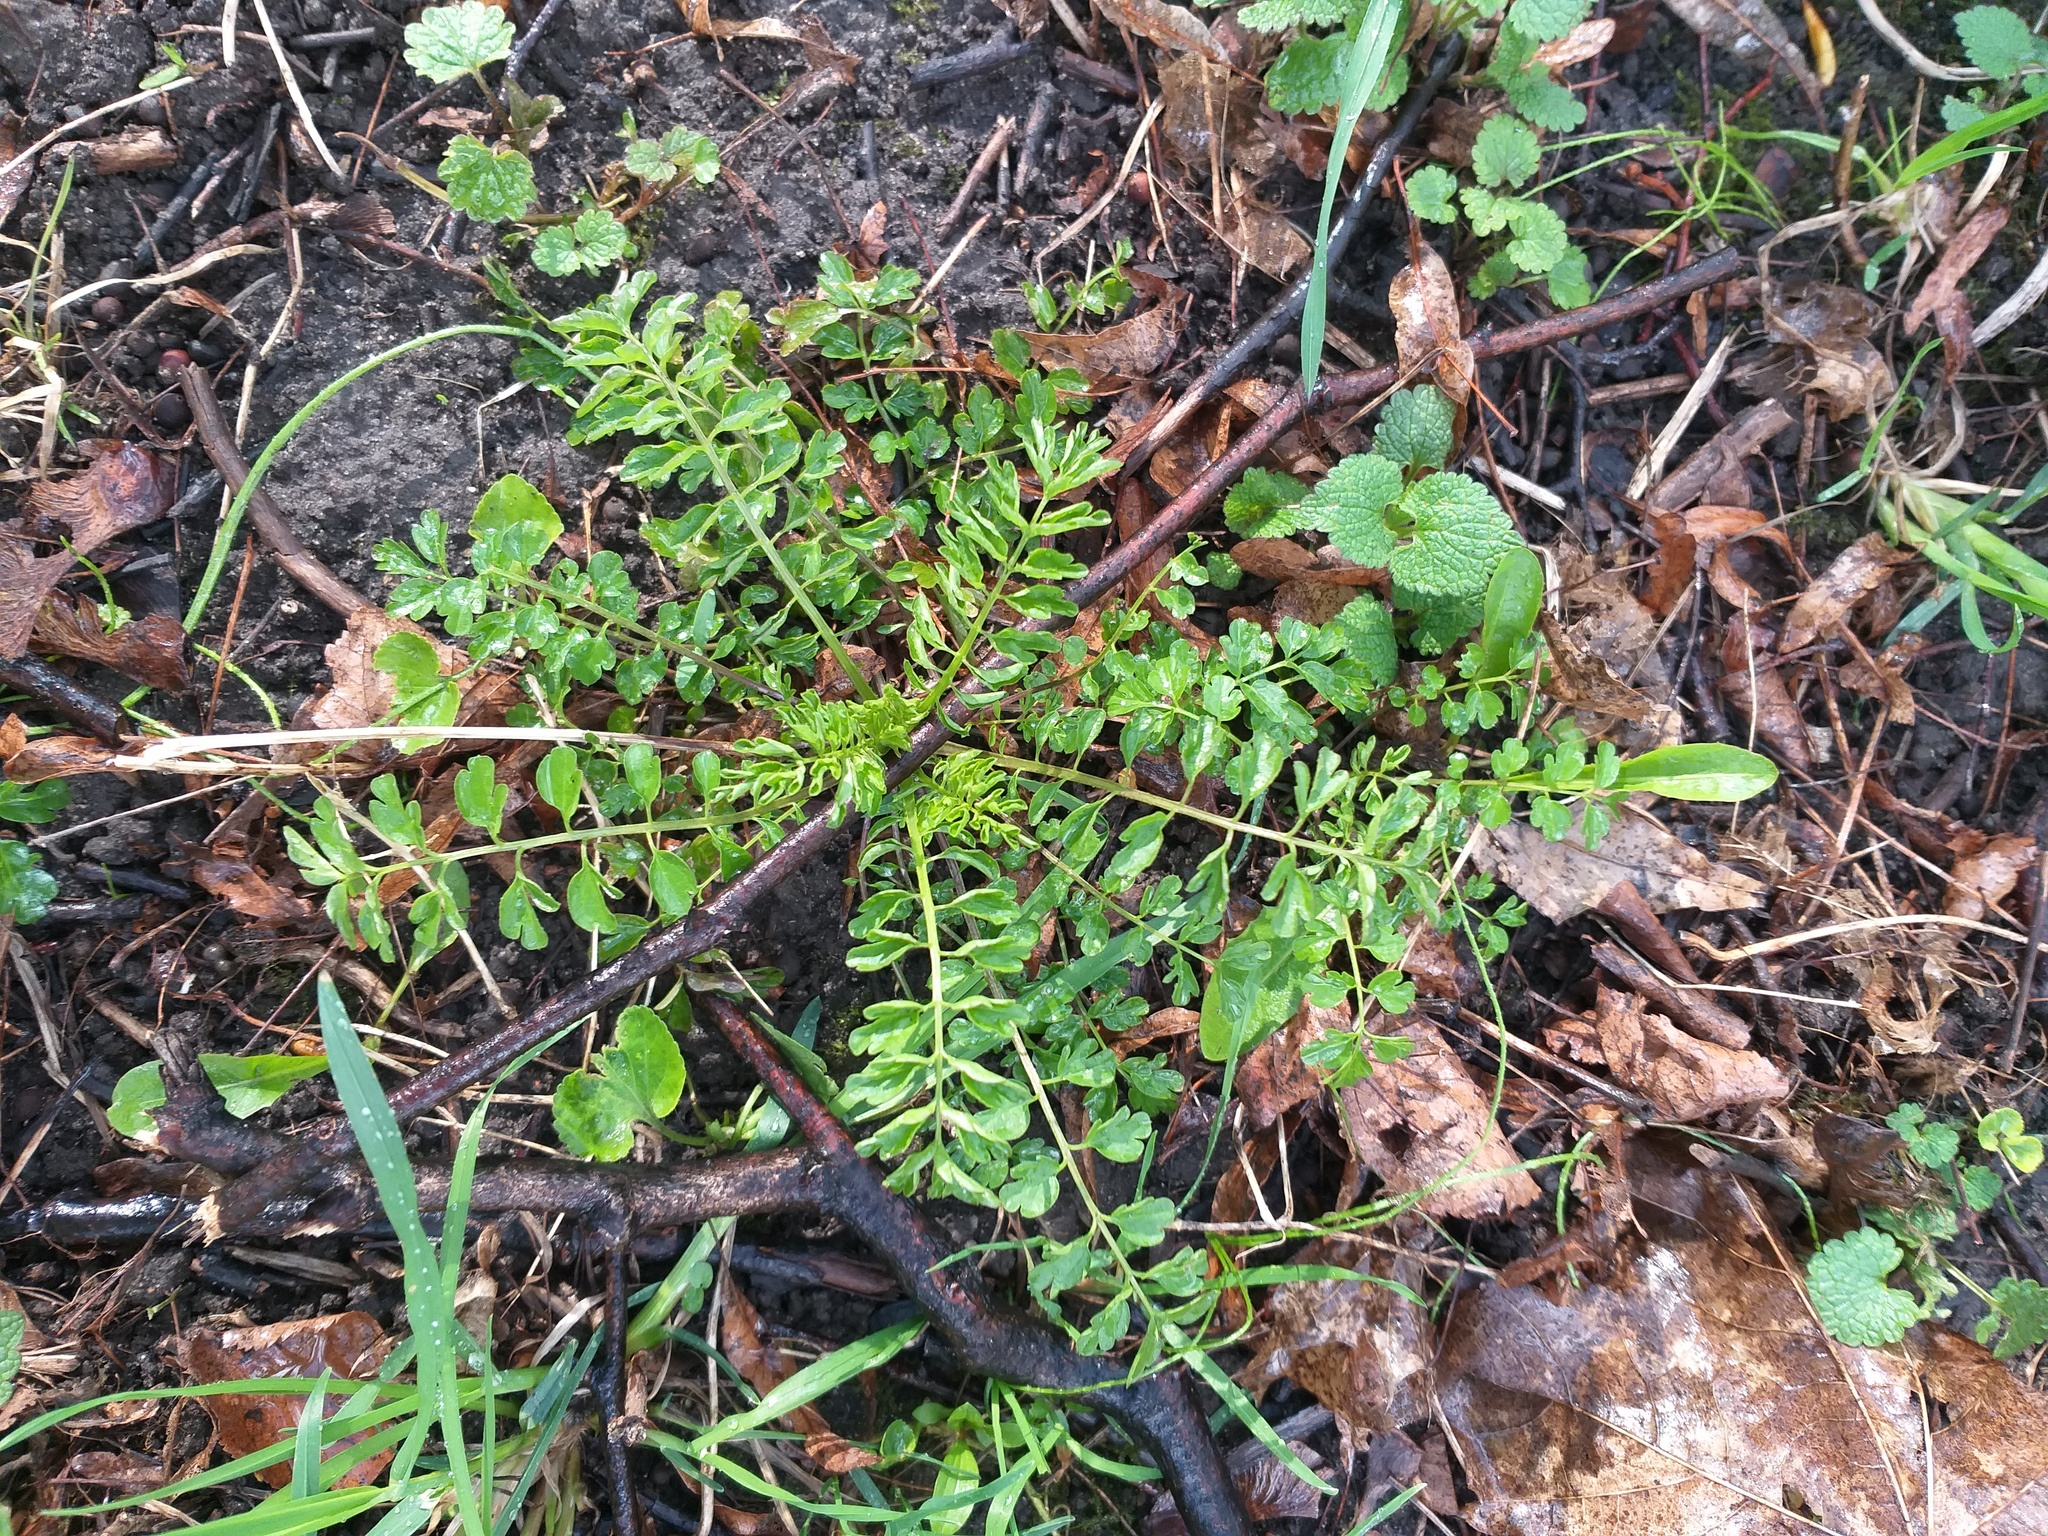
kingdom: Plantae
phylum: Tracheophyta
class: Magnoliopsida
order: Brassicales
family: Brassicaceae
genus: Cardamine
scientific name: Cardamine impatiens
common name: Narrow-leaved bitter-cress
